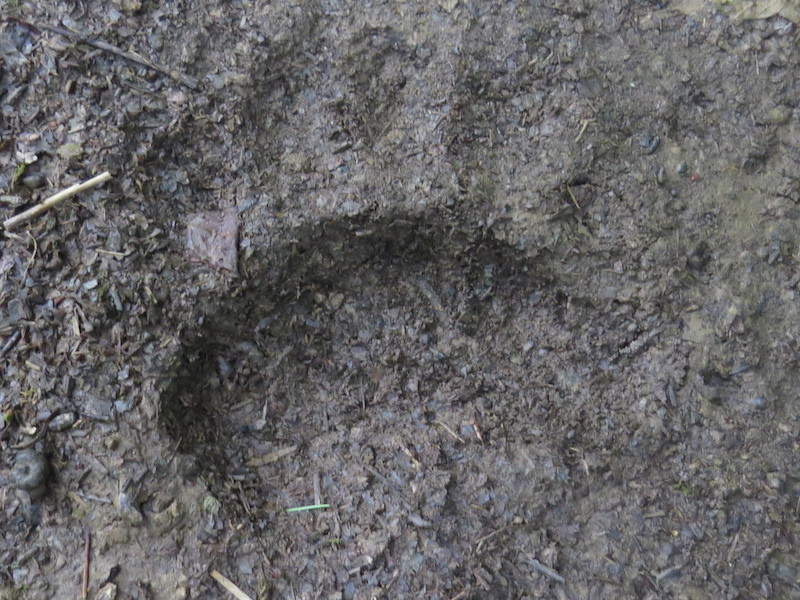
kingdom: Animalia
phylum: Chordata
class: Mammalia
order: Carnivora
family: Ursidae
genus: Ursus
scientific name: Ursus americanus
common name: American black bear
